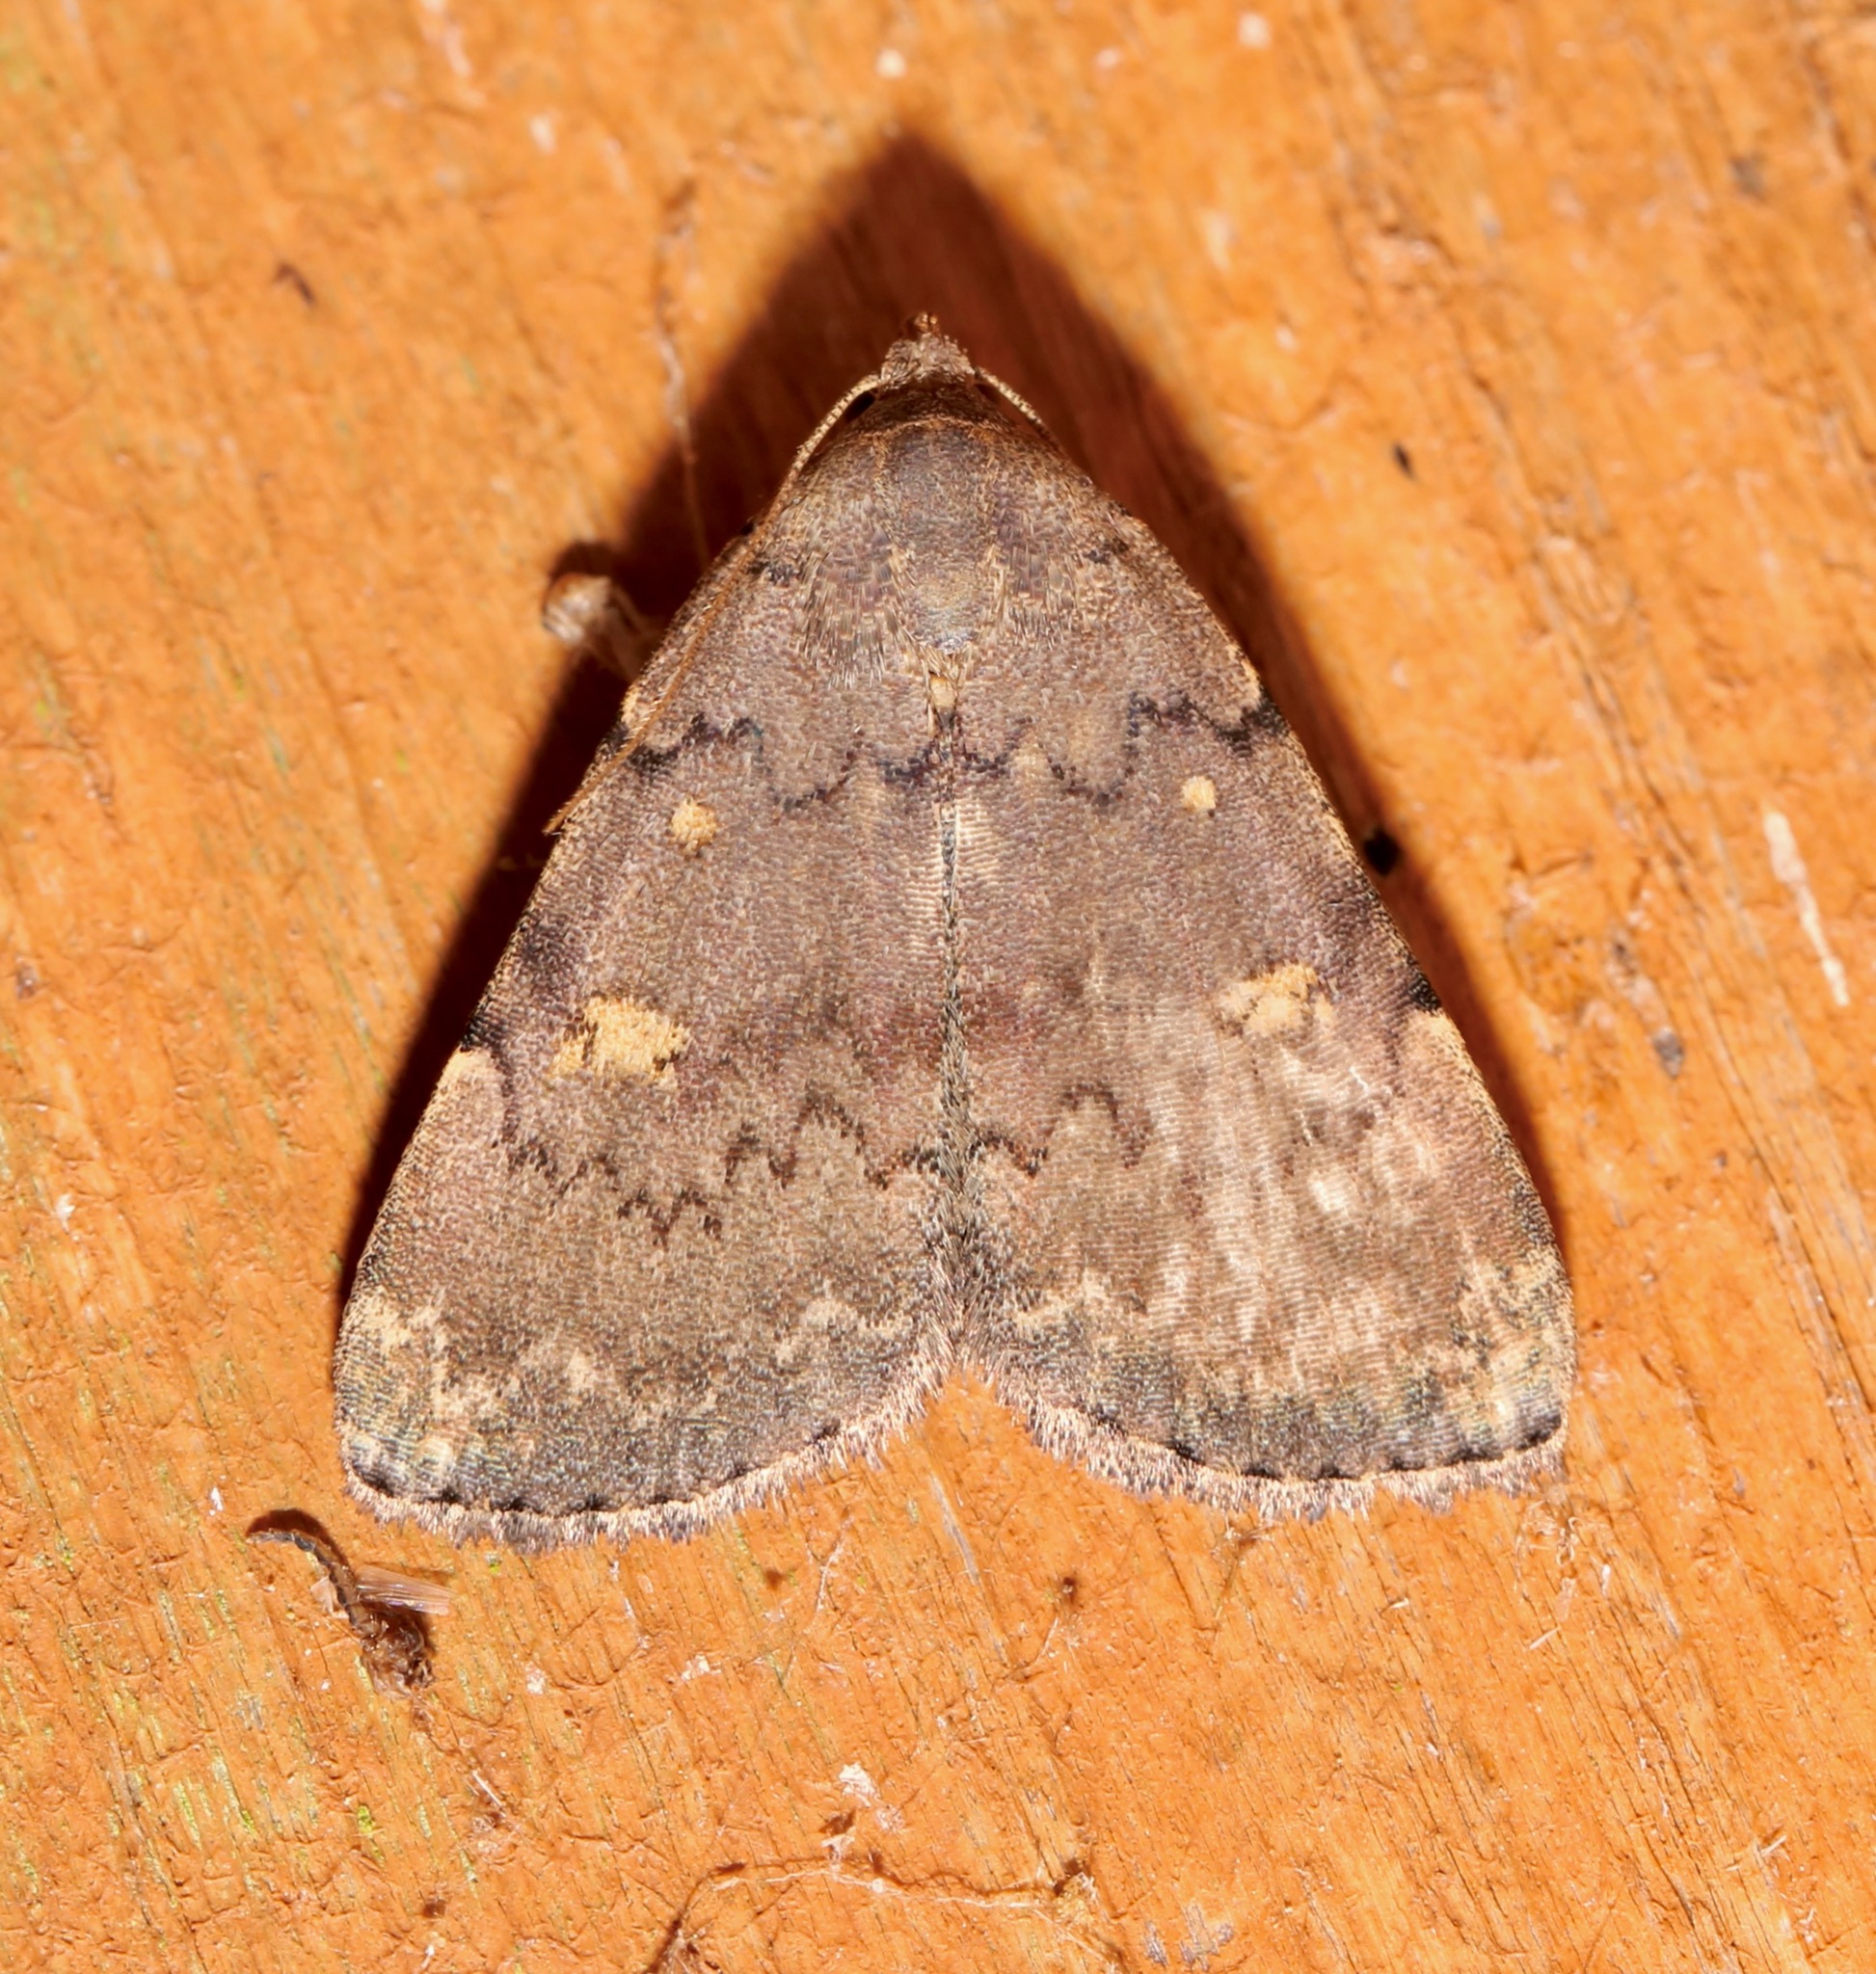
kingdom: Animalia
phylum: Arthropoda
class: Insecta
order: Lepidoptera
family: Erebidae
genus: Idia
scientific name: Idia aemula
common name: Common idia moth
